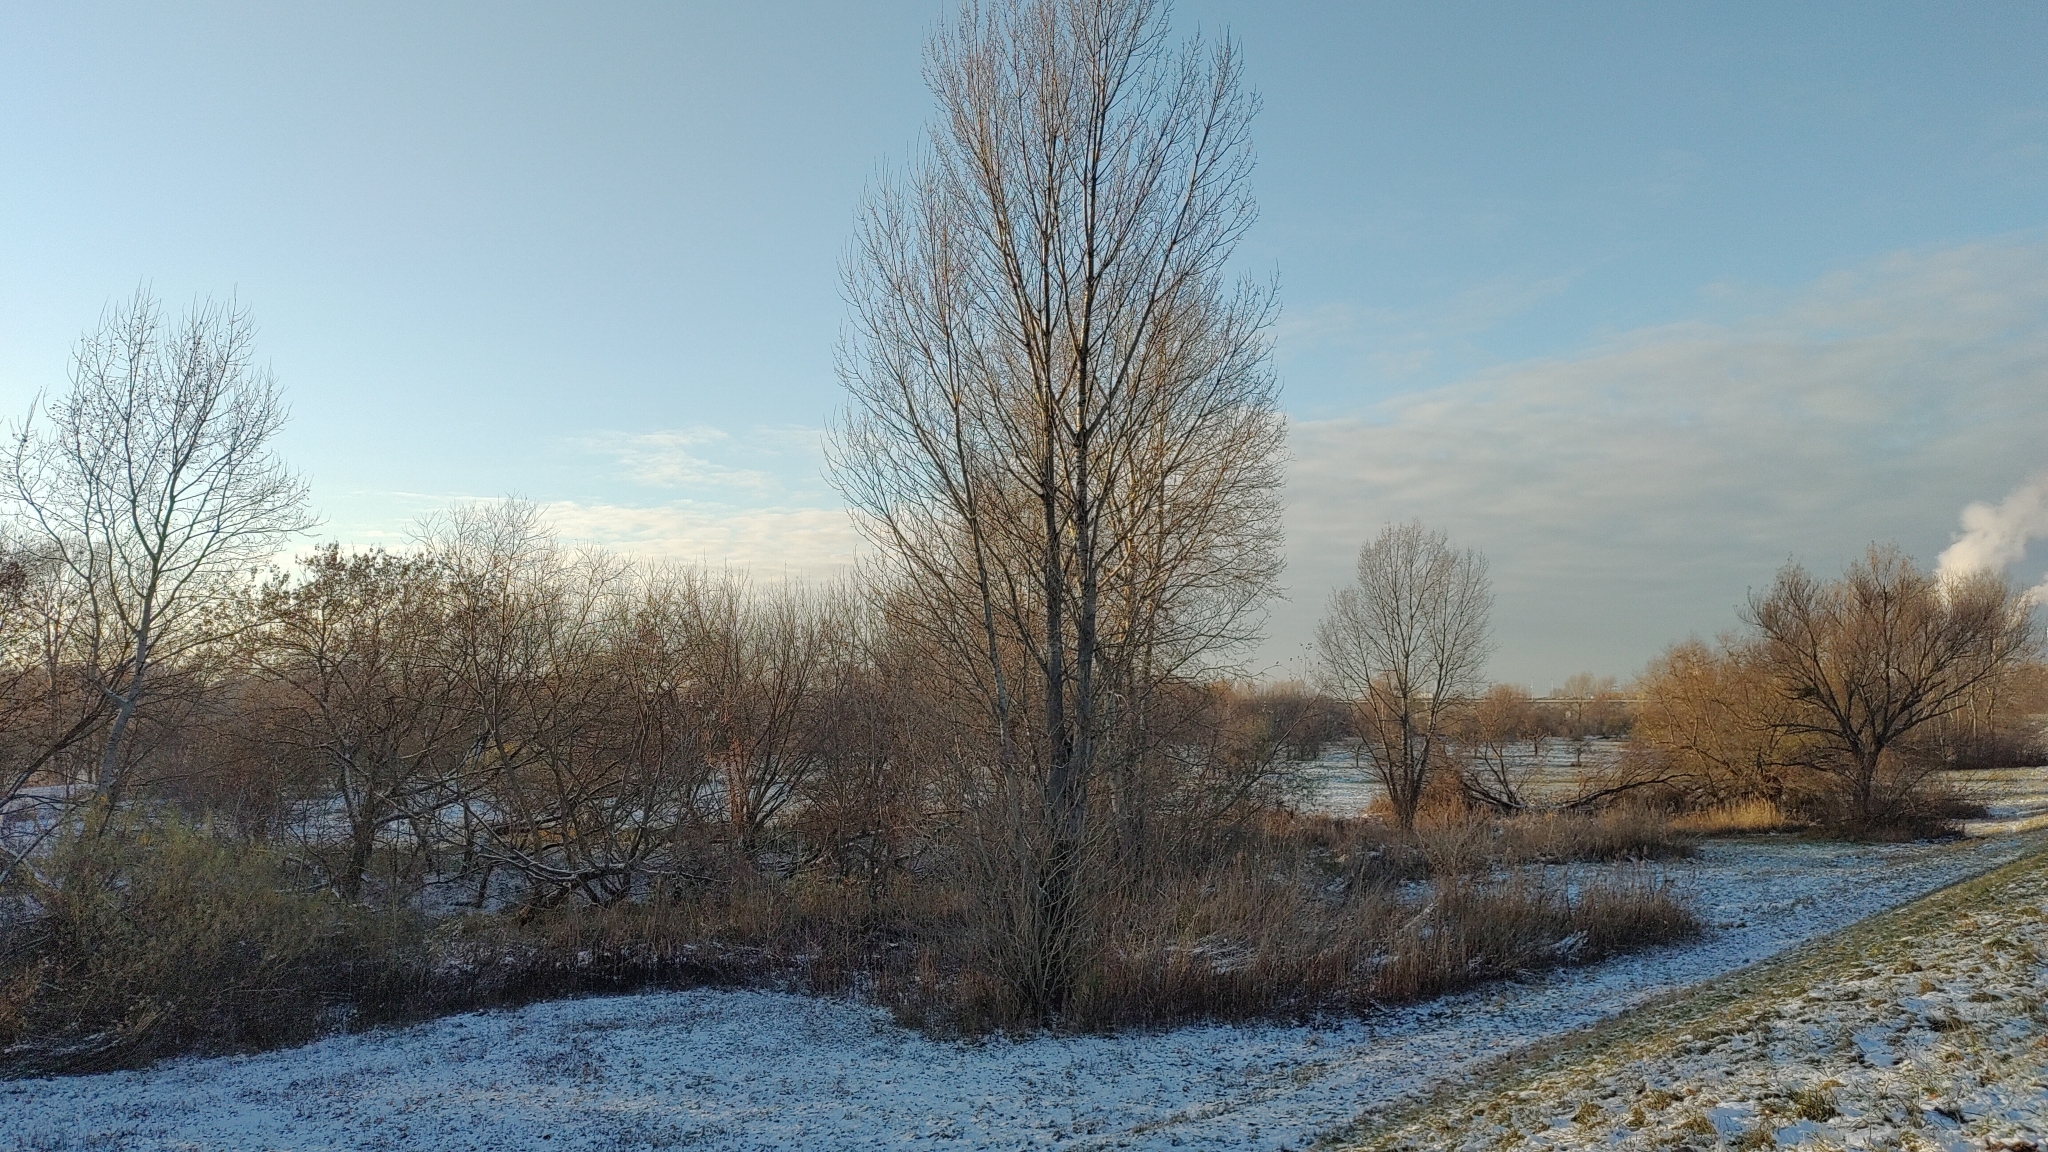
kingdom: Animalia
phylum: Chordata
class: Aves
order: Passeriformes
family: Aegithalidae
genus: Aegithalos
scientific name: Aegithalos caudatus
